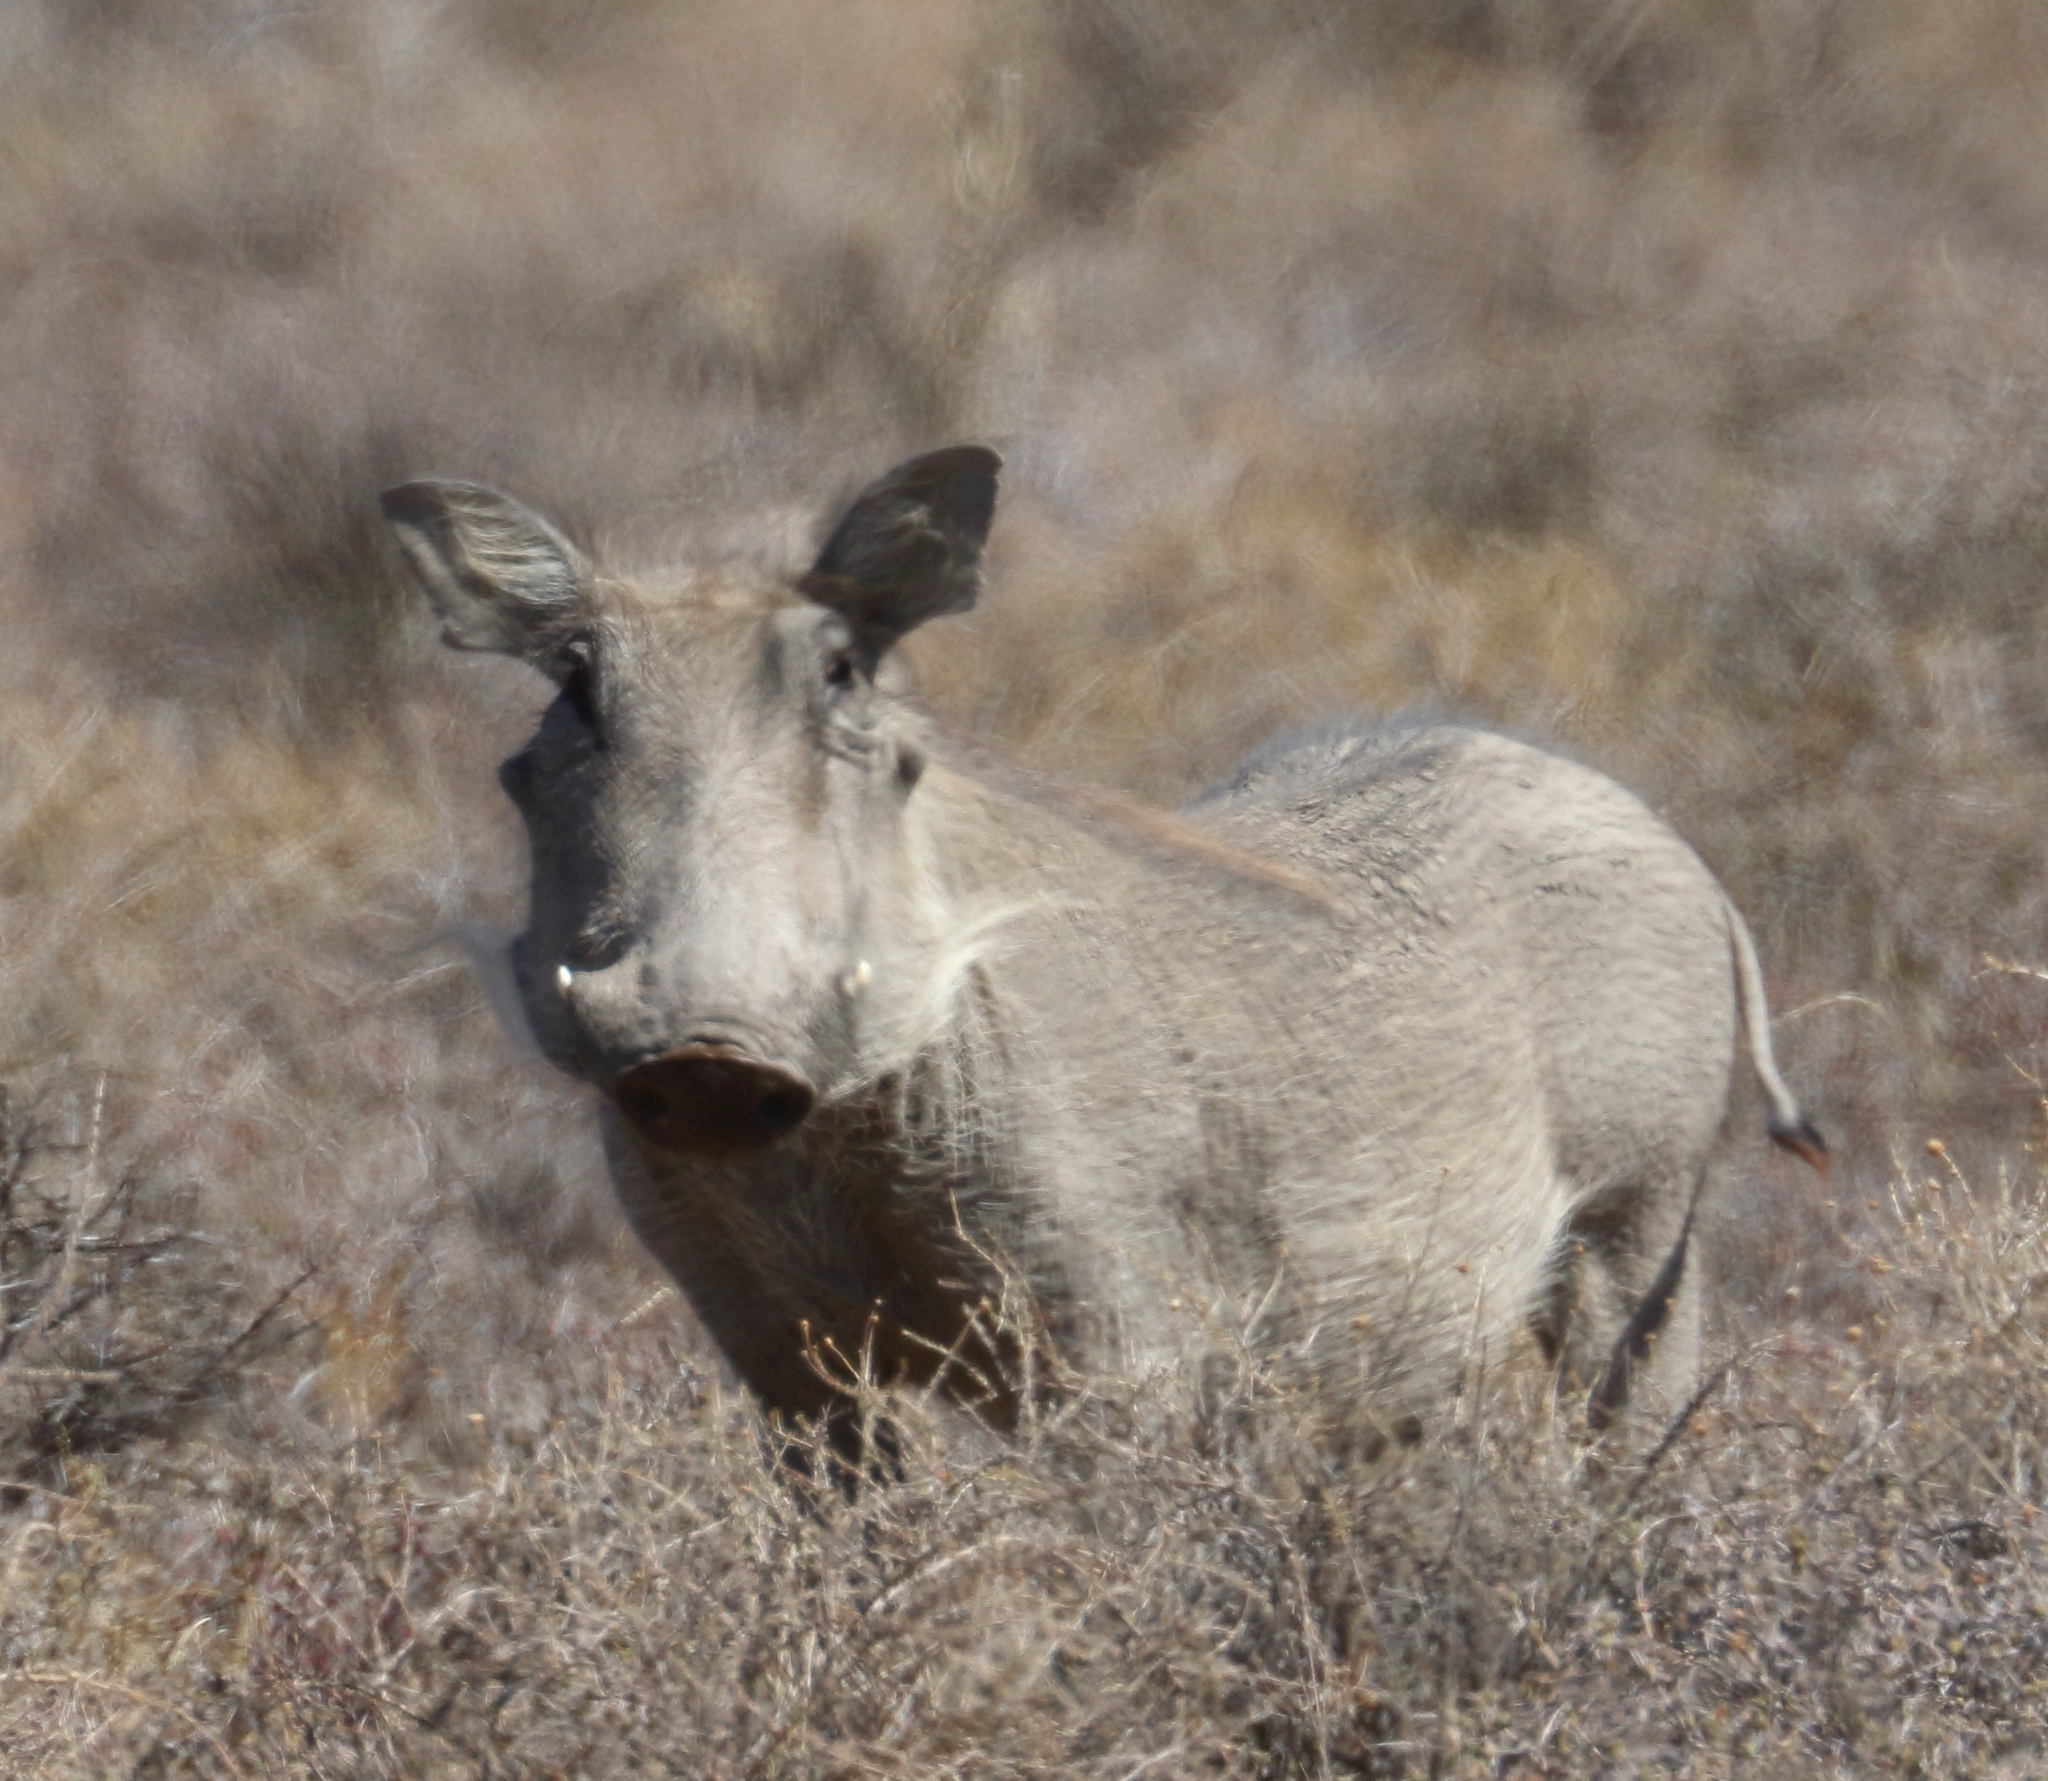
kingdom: Animalia
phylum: Chordata
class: Mammalia
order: Artiodactyla
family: Suidae
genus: Phacochoerus
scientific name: Phacochoerus africanus
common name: Common warthog
